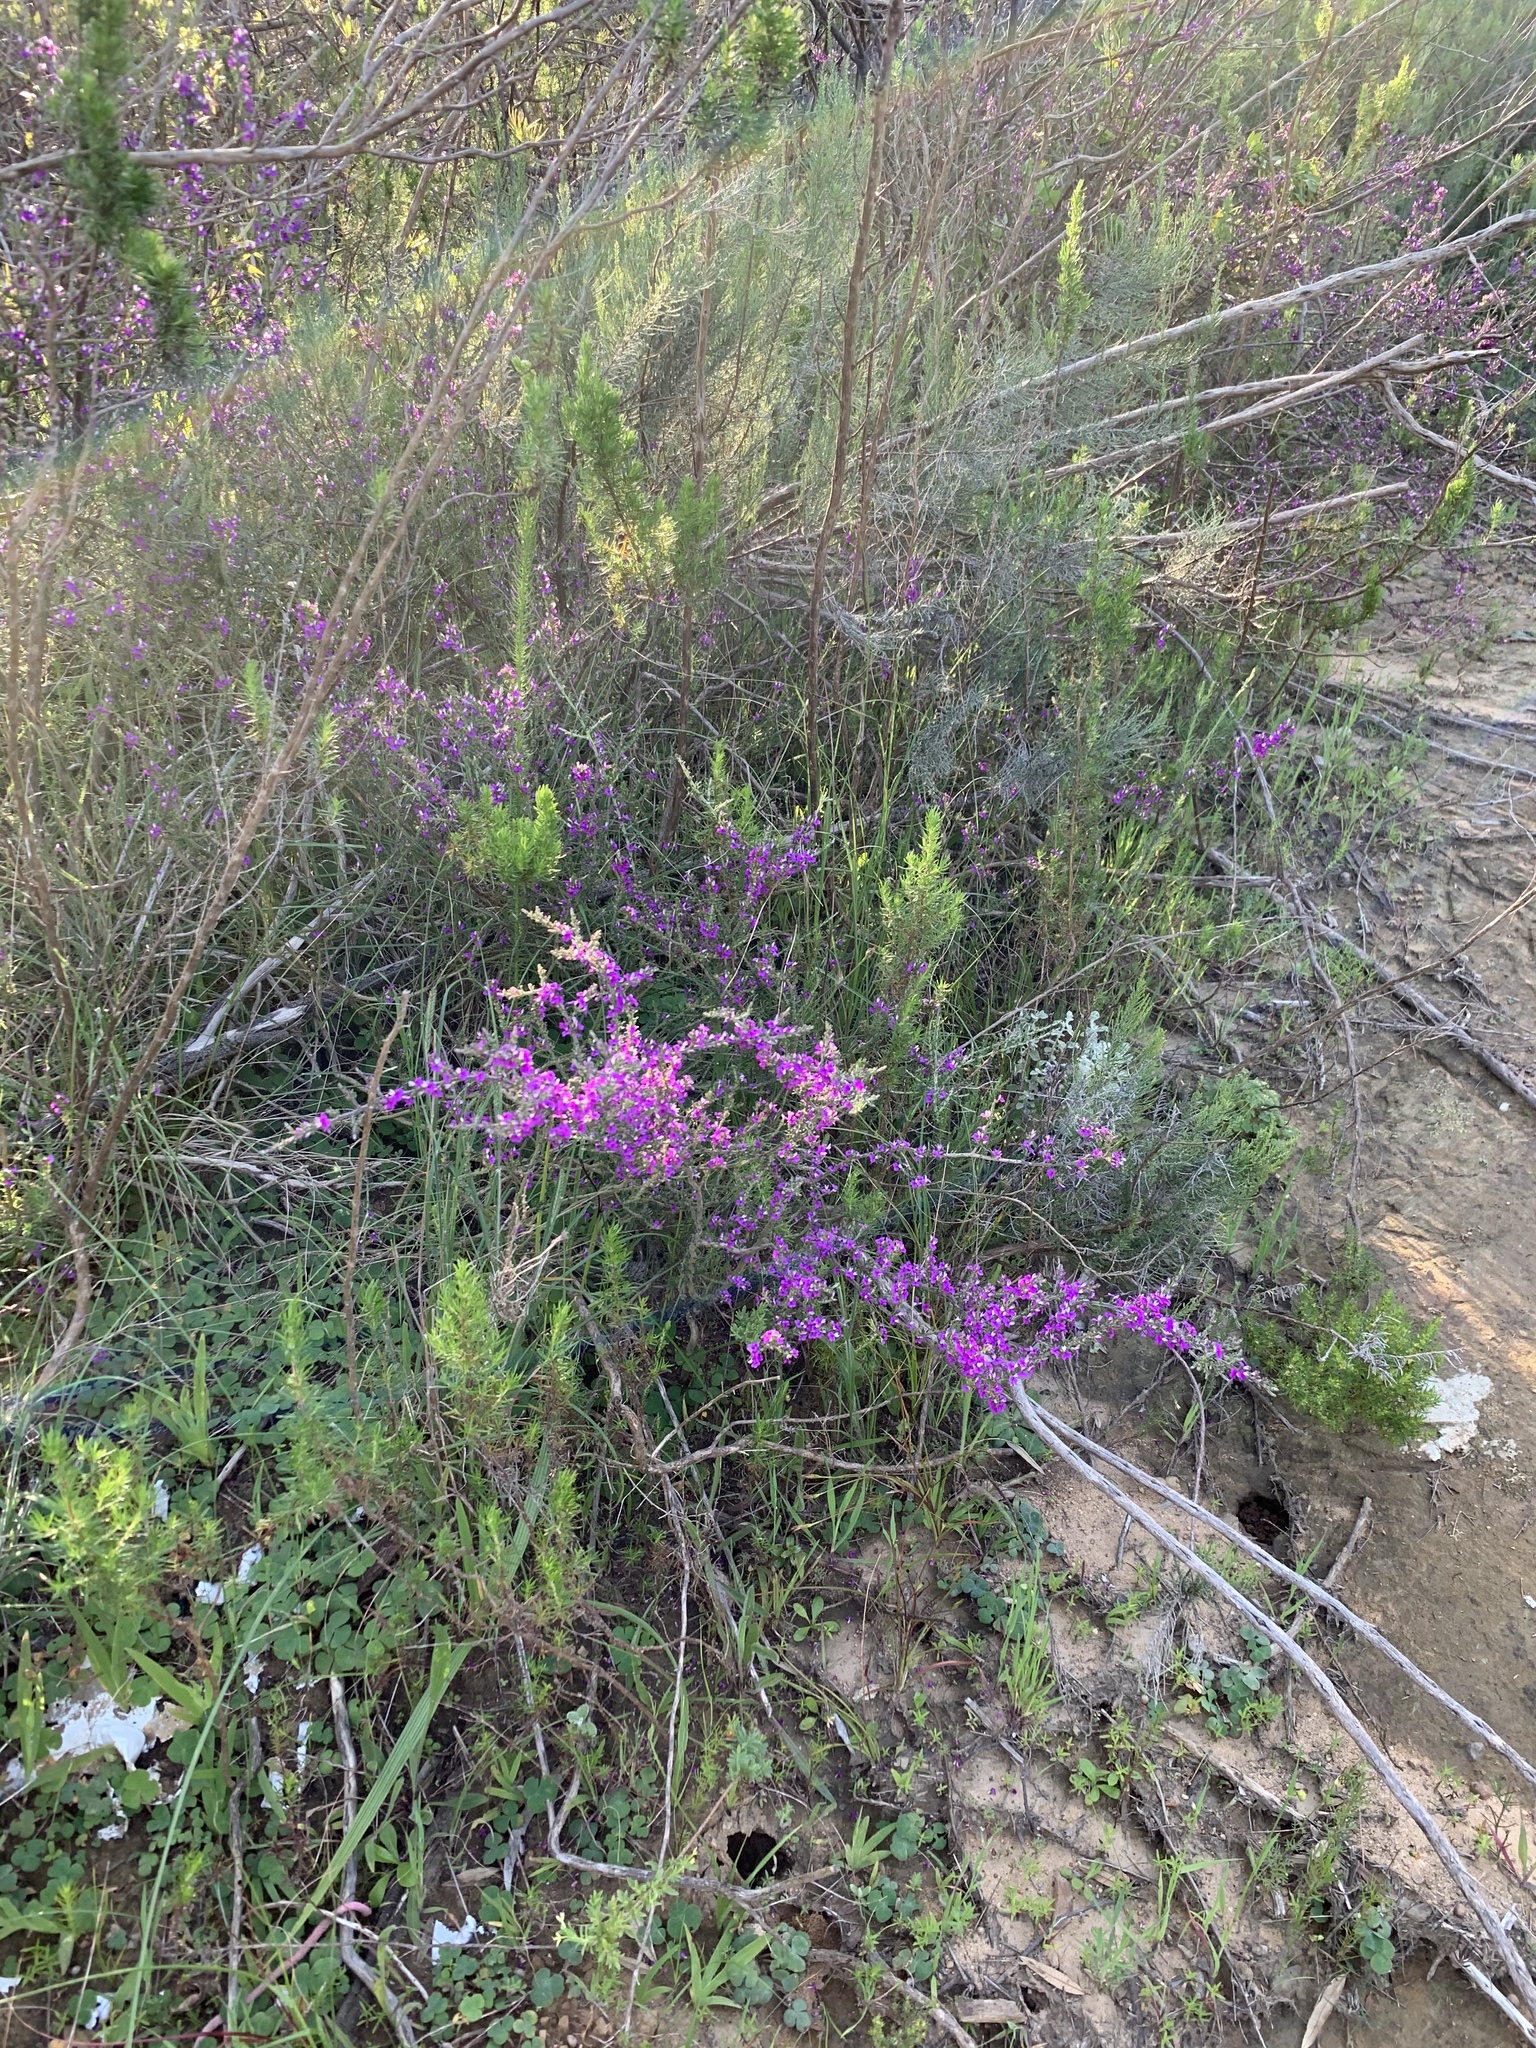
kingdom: Plantae
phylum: Tracheophyta
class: Magnoliopsida
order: Fabales
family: Polygalaceae
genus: Muraltia
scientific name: Muraltia macropetala
